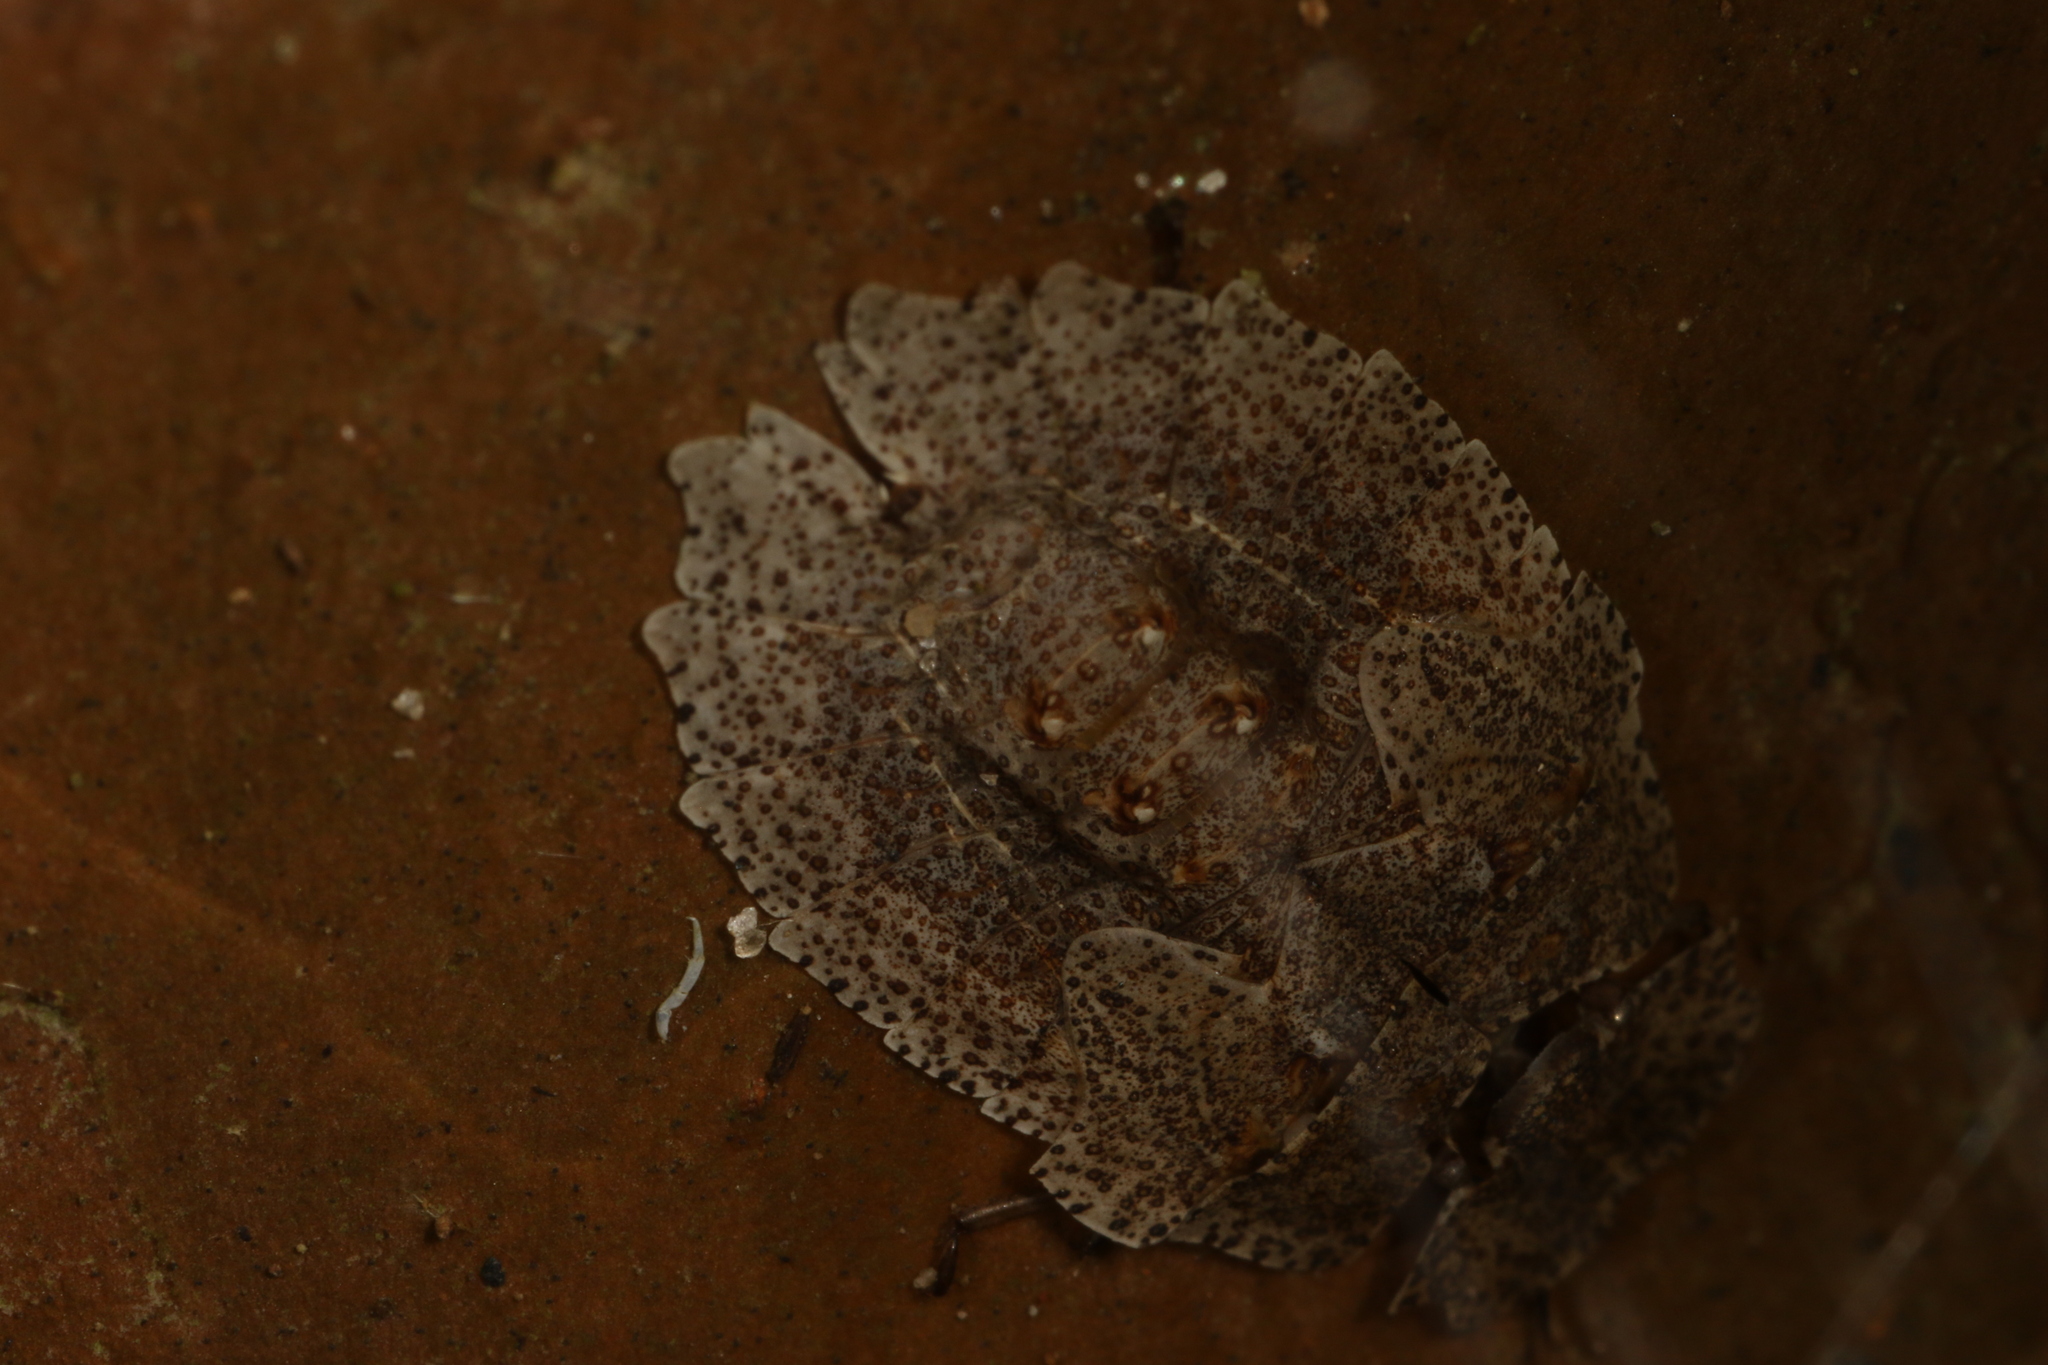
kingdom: Animalia
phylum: Arthropoda
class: Insecta
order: Hemiptera
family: Phleides
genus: Phloea
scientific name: Phloea
